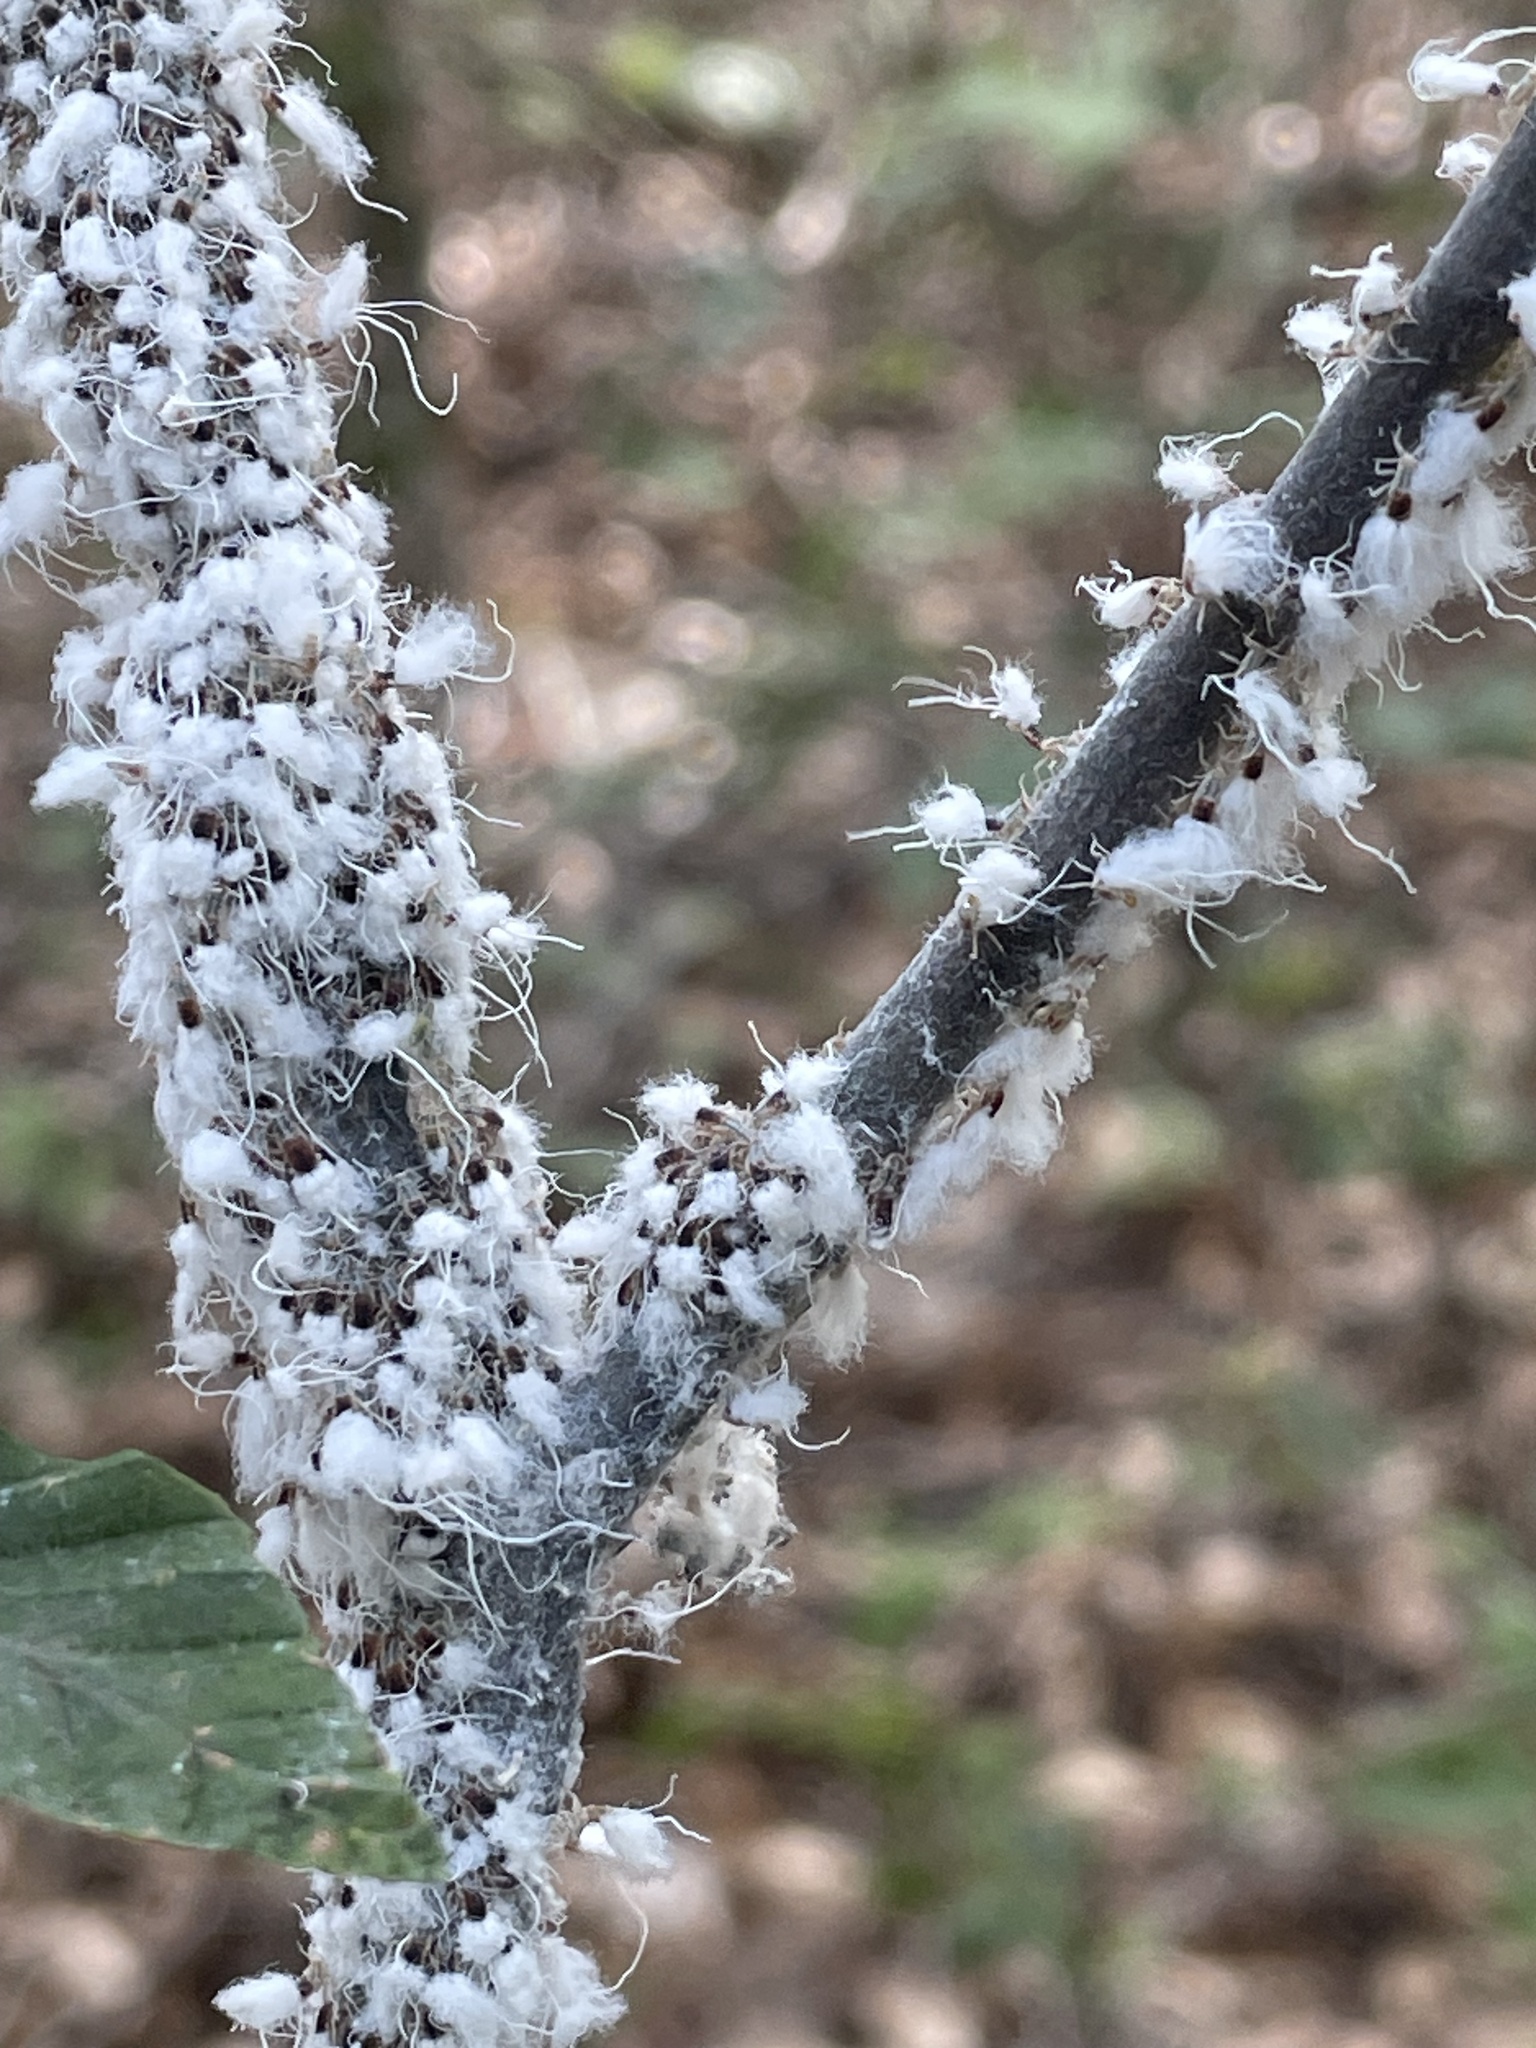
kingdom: Animalia
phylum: Arthropoda
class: Insecta
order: Hemiptera
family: Aphididae
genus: Grylloprociphilus
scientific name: Grylloprociphilus imbricator
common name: Beech blight aphid
